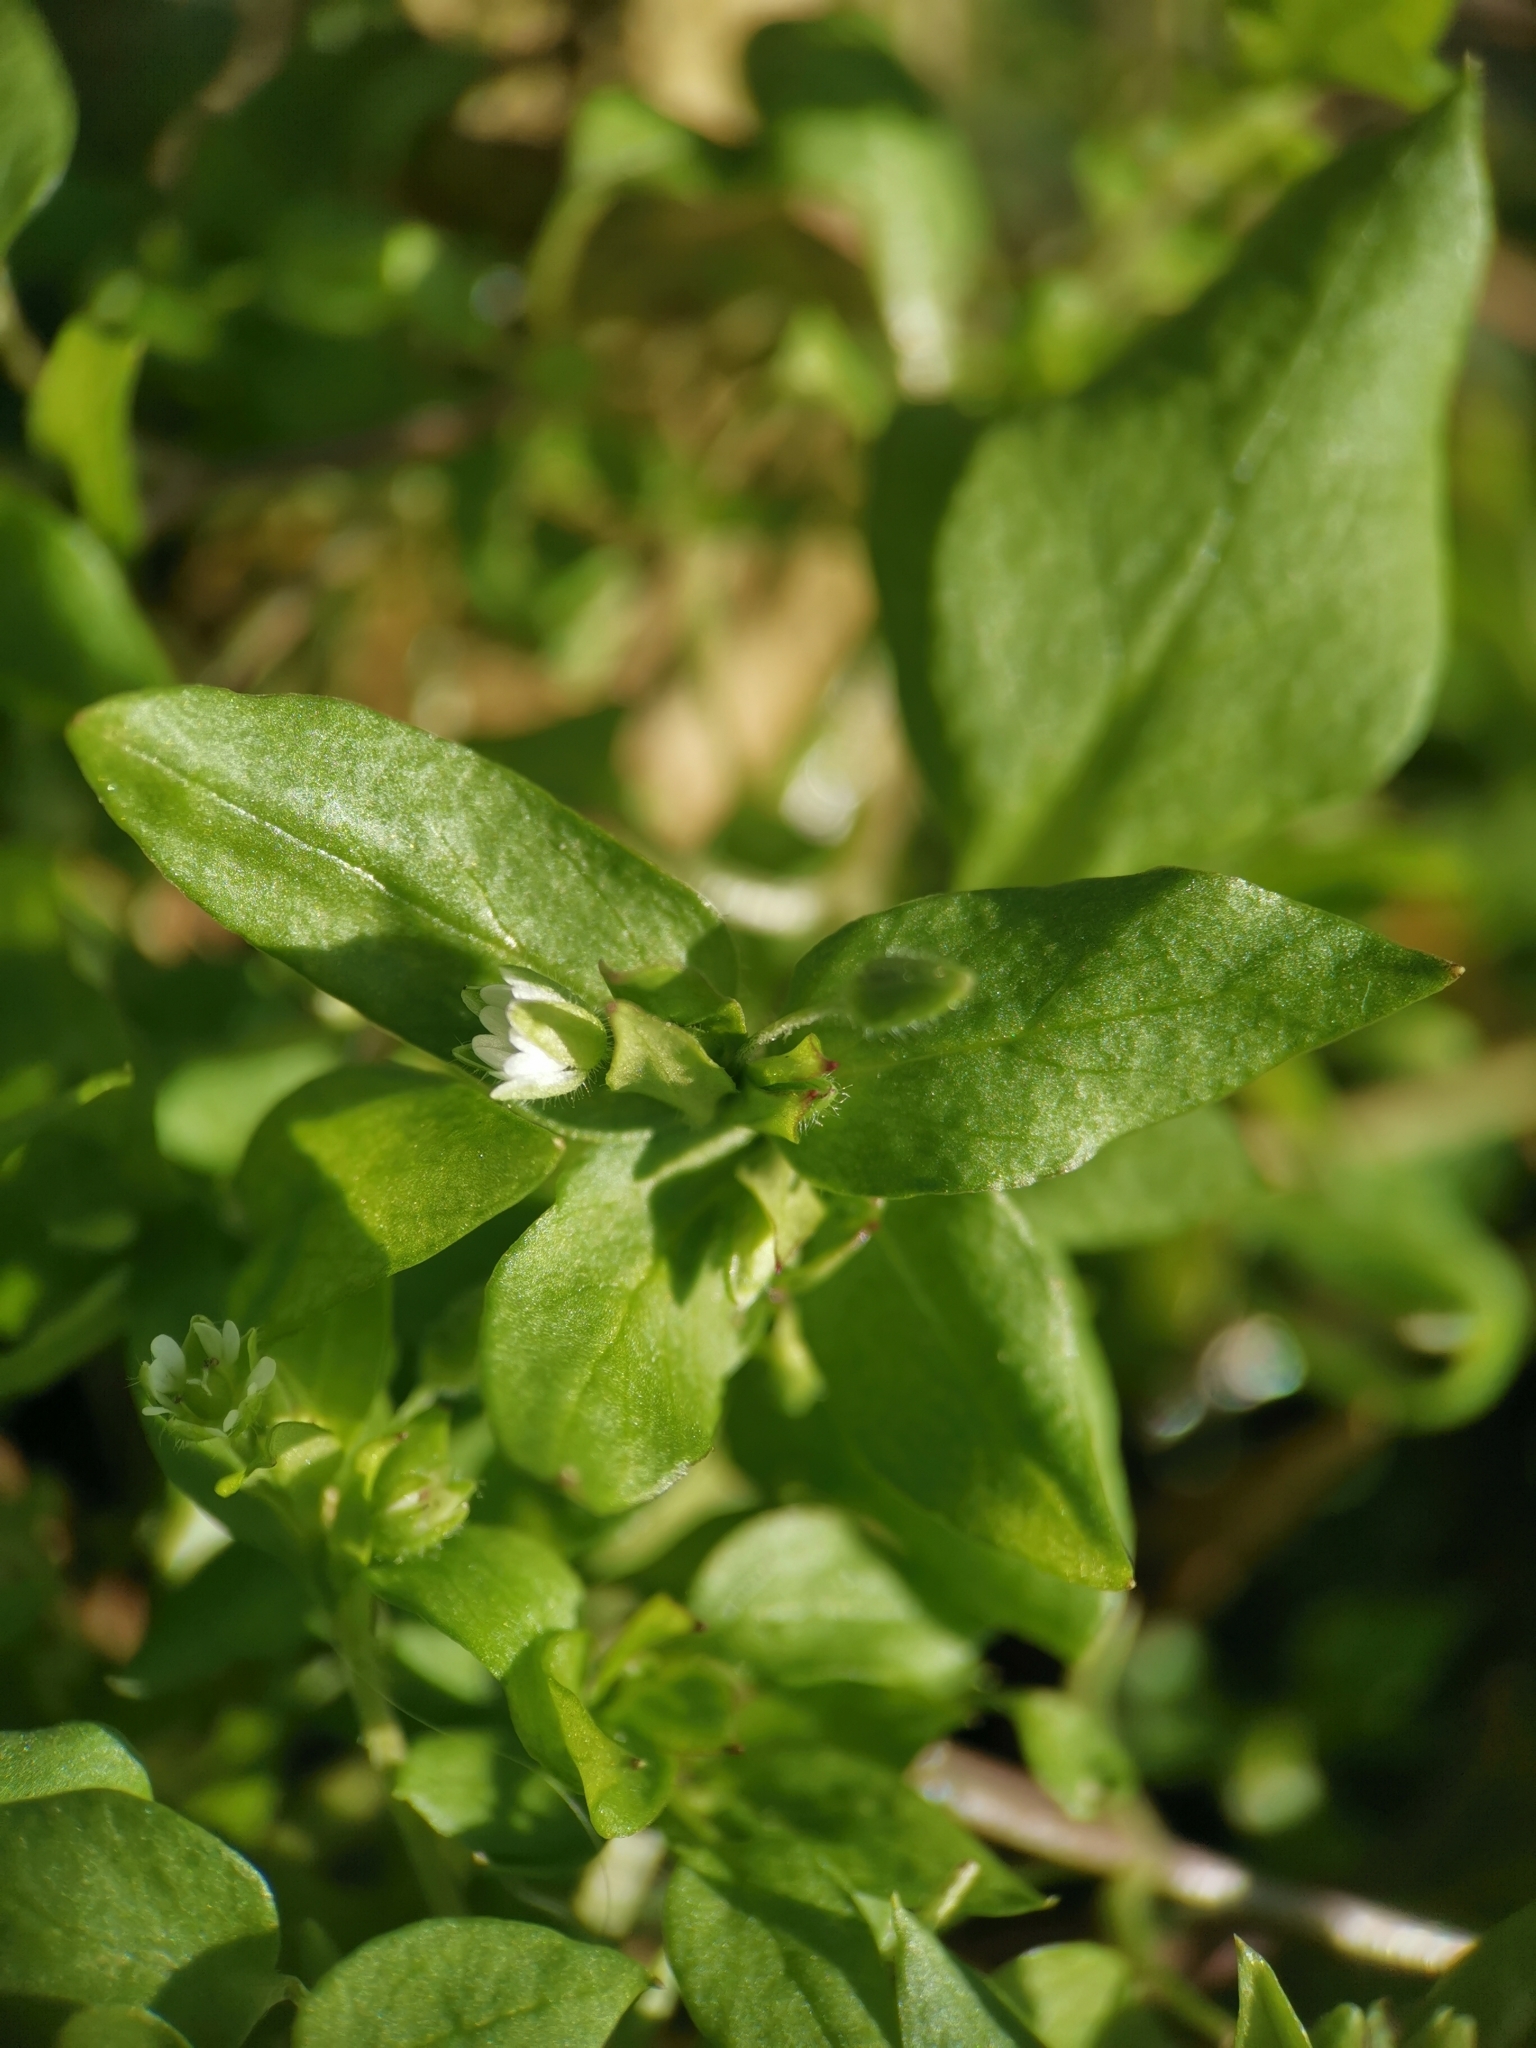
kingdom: Plantae
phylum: Tracheophyta
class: Magnoliopsida
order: Caryophyllales
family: Caryophyllaceae
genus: Stellaria
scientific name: Stellaria media
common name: Common chickweed
